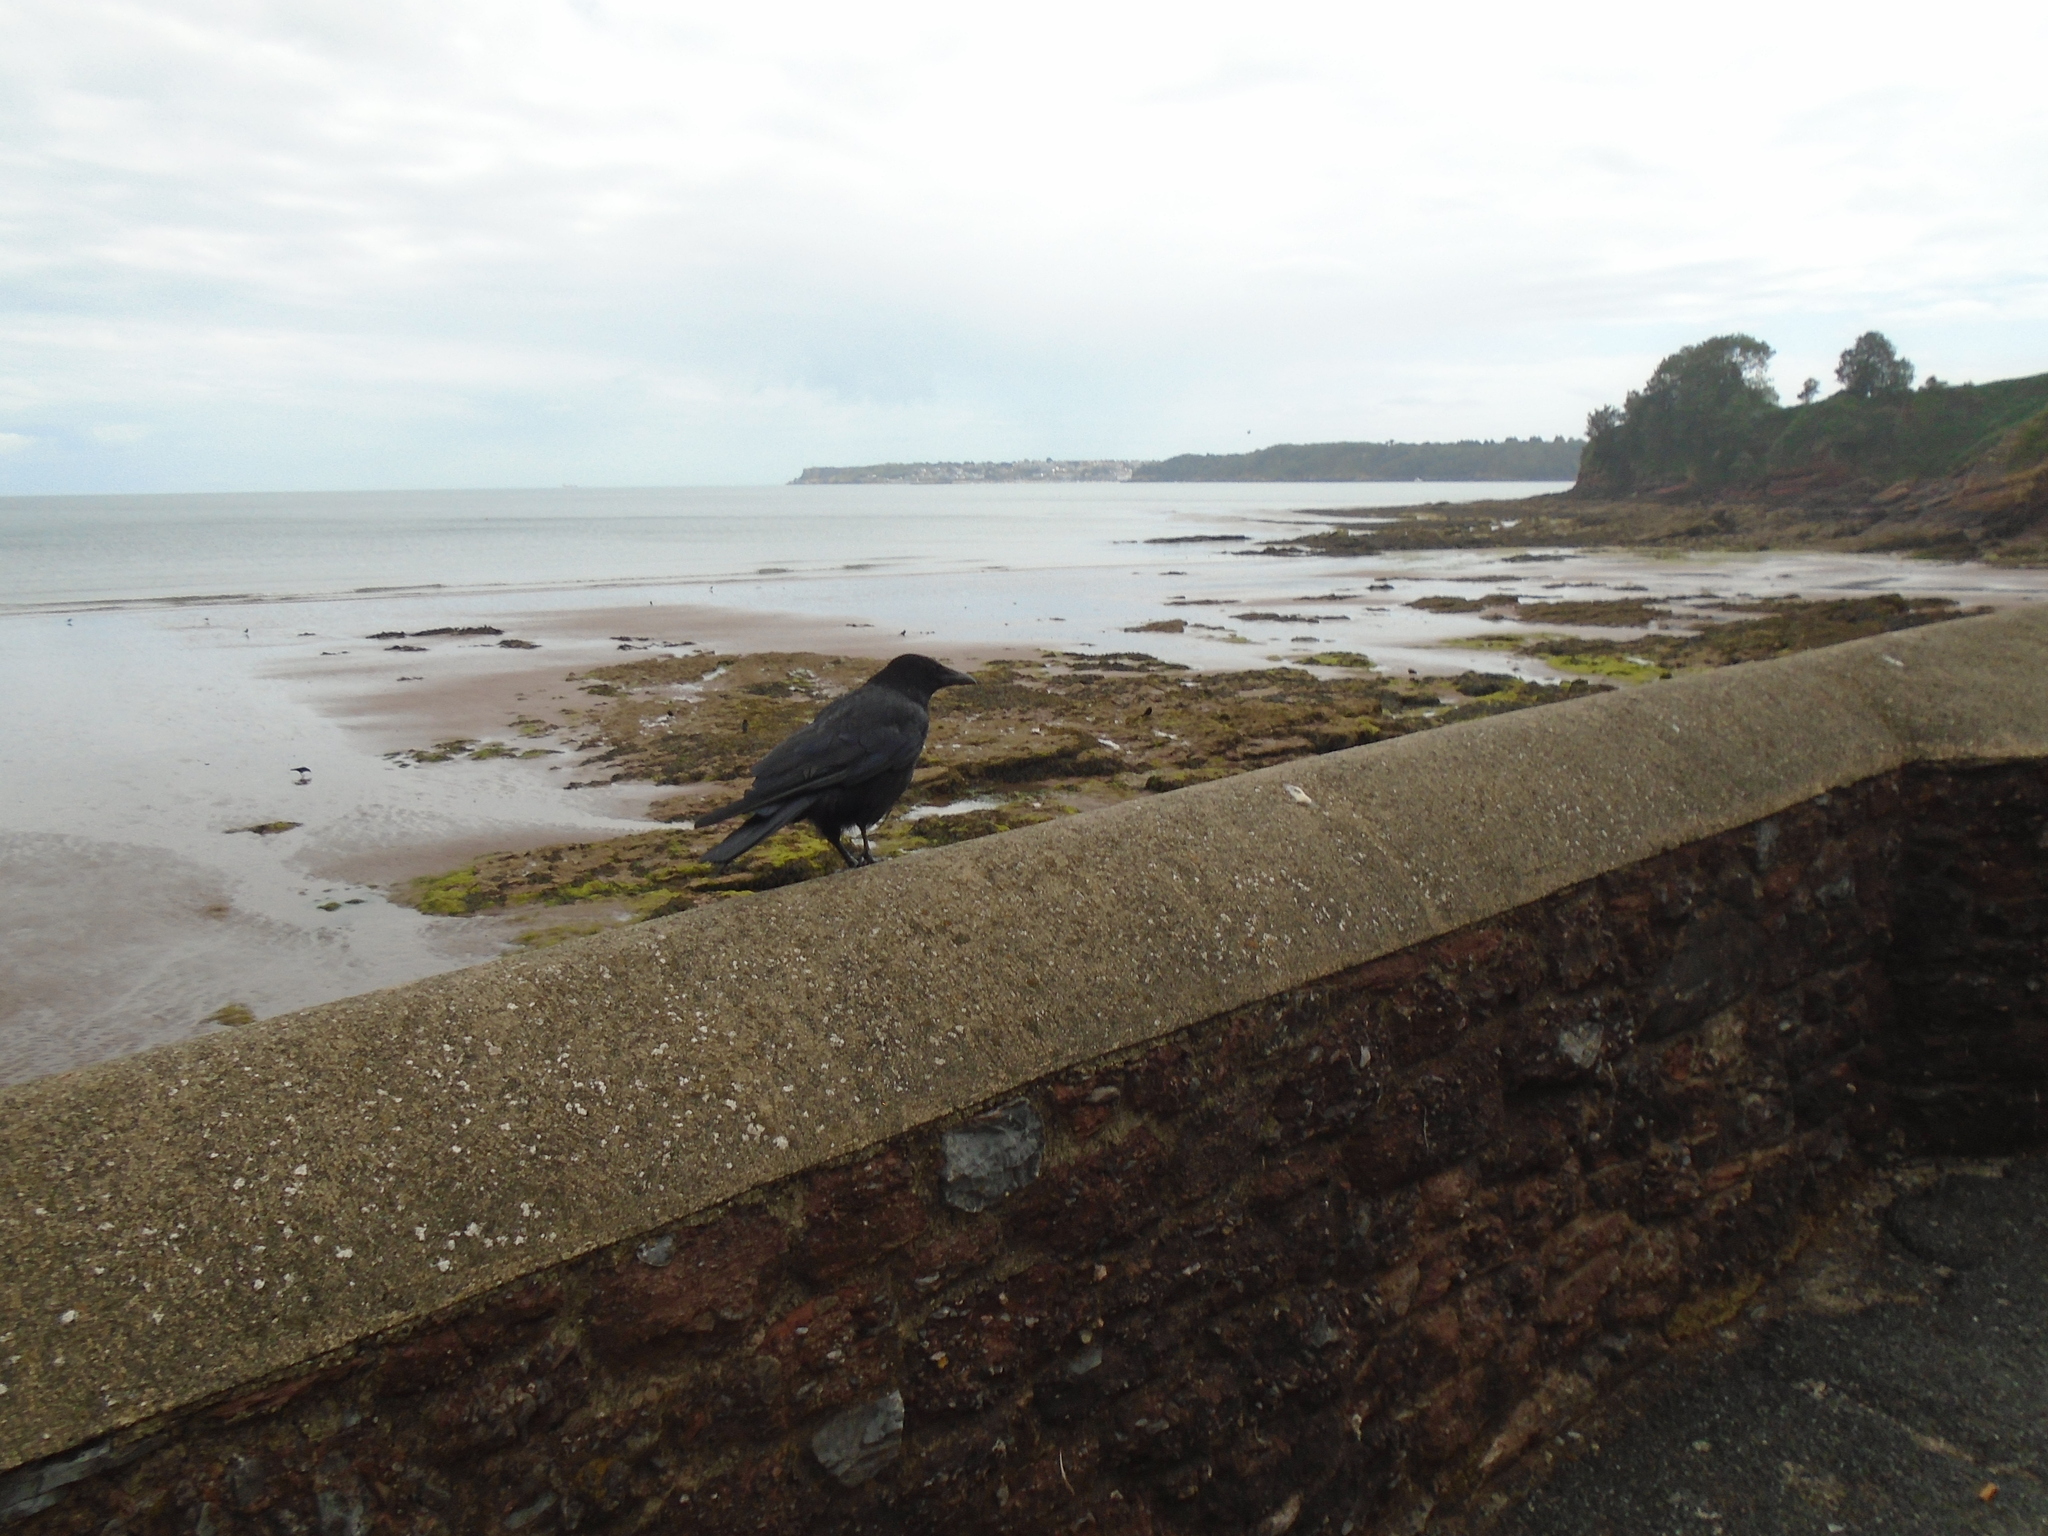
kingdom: Animalia
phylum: Chordata
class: Aves
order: Passeriformes
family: Corvidae
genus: Corvus
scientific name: Corvus corone
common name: Carrion crow
